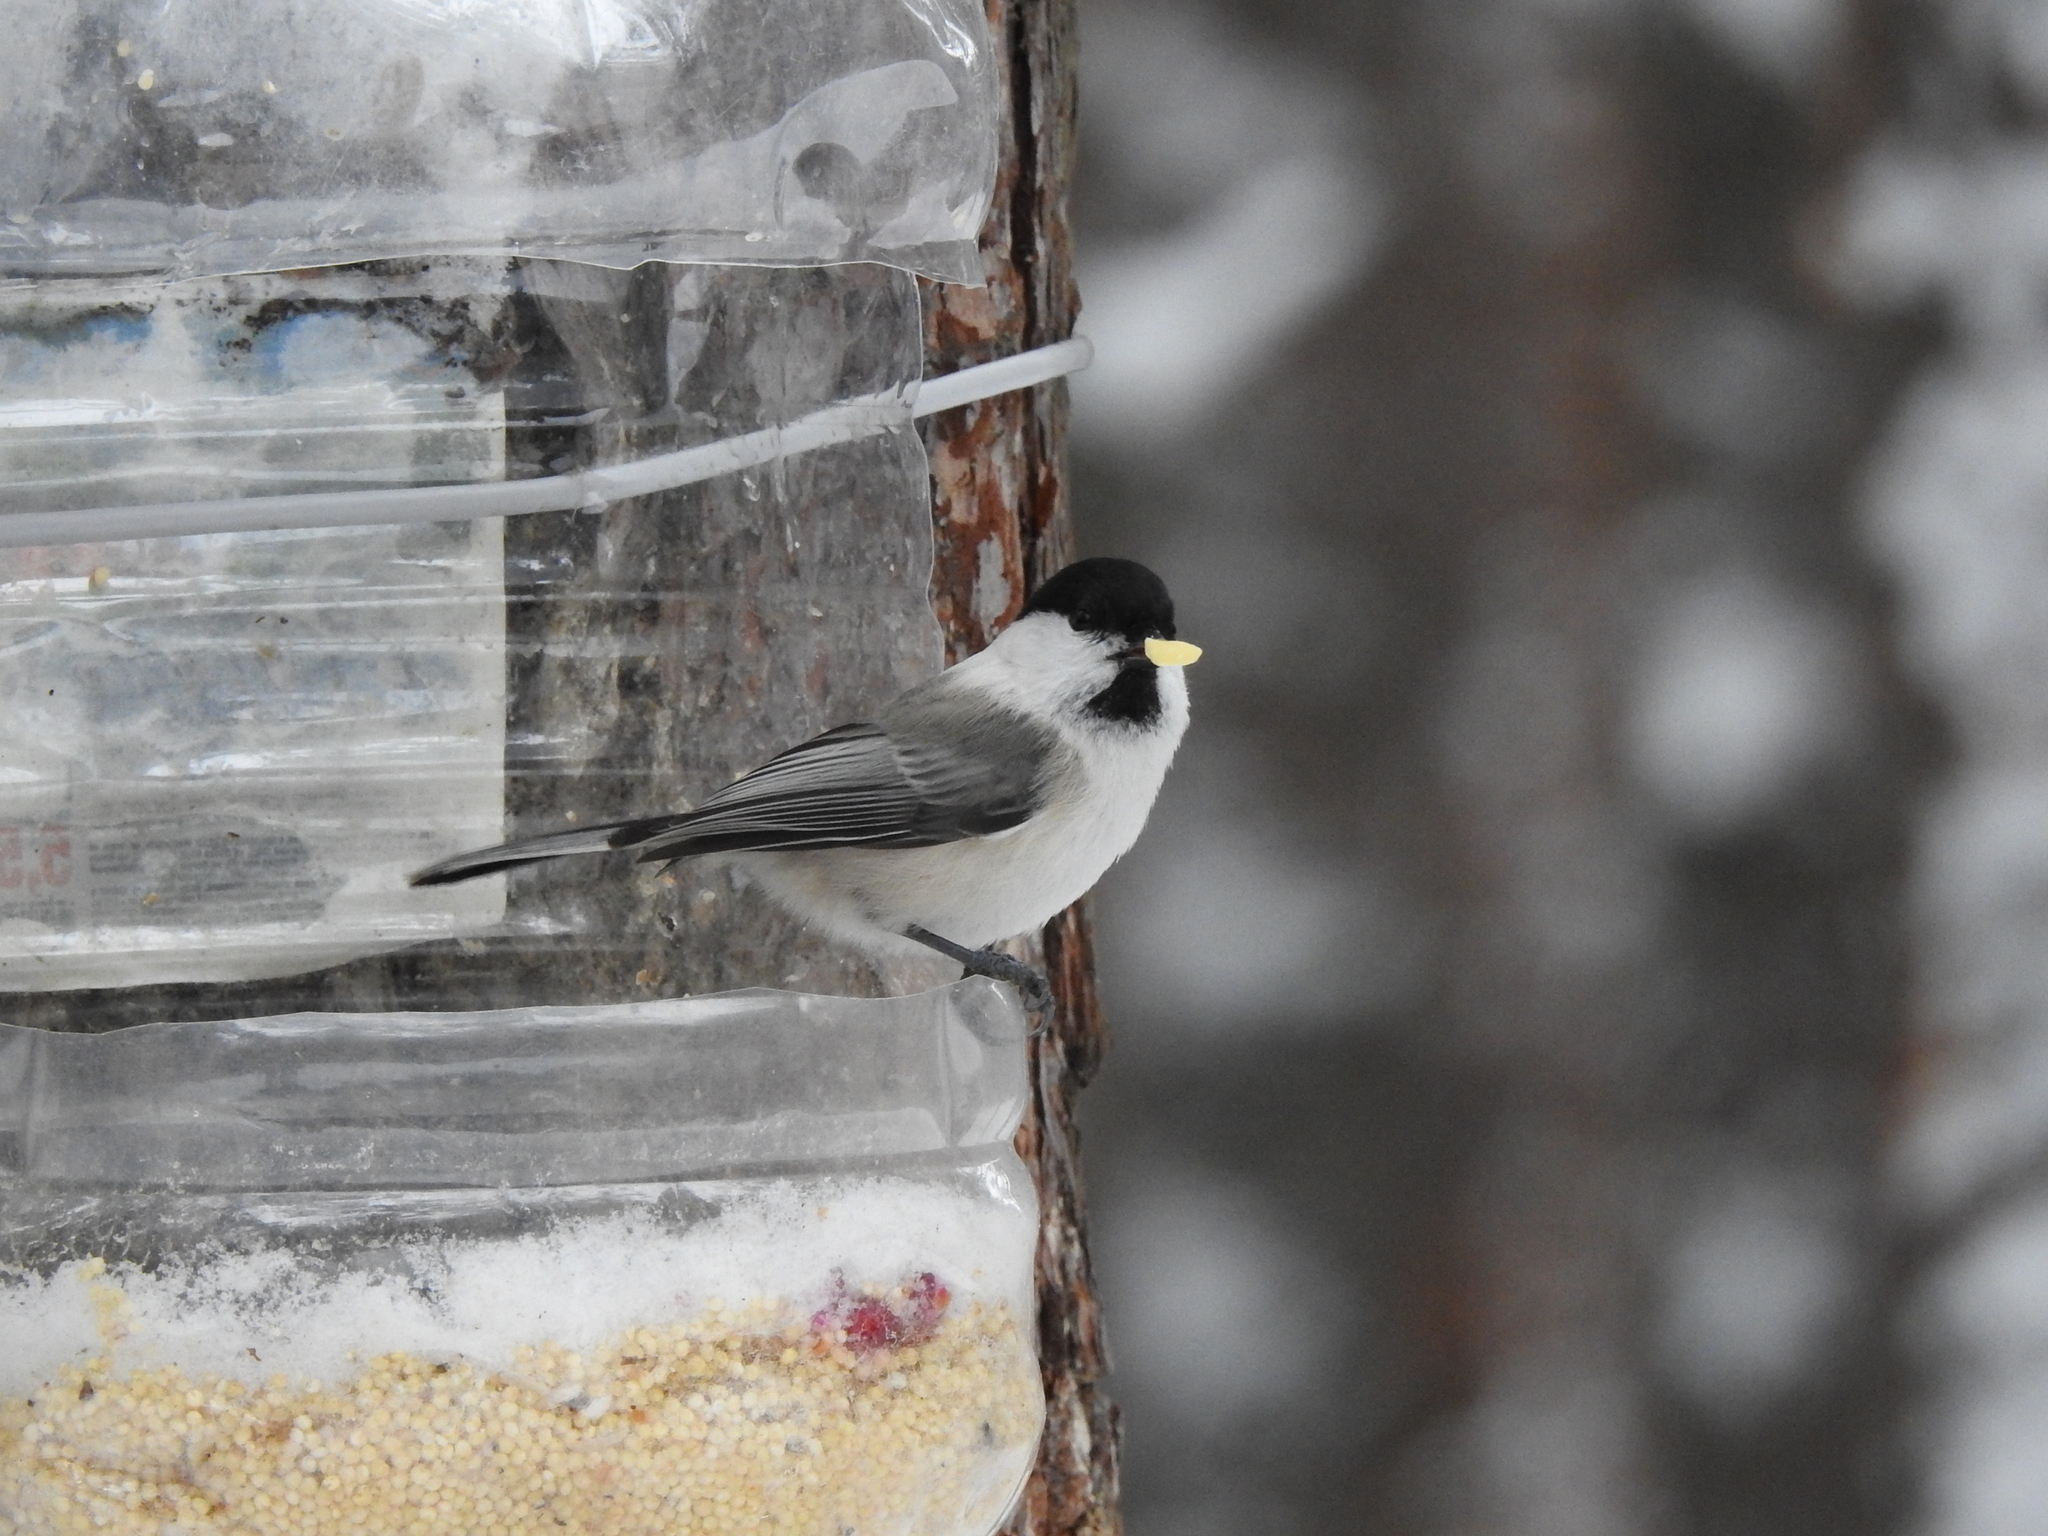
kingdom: Animalia
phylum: Chordata
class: Aves
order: Passeriformes
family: Paridae
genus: Poecile
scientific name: Poecile montanus
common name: Willow tit
